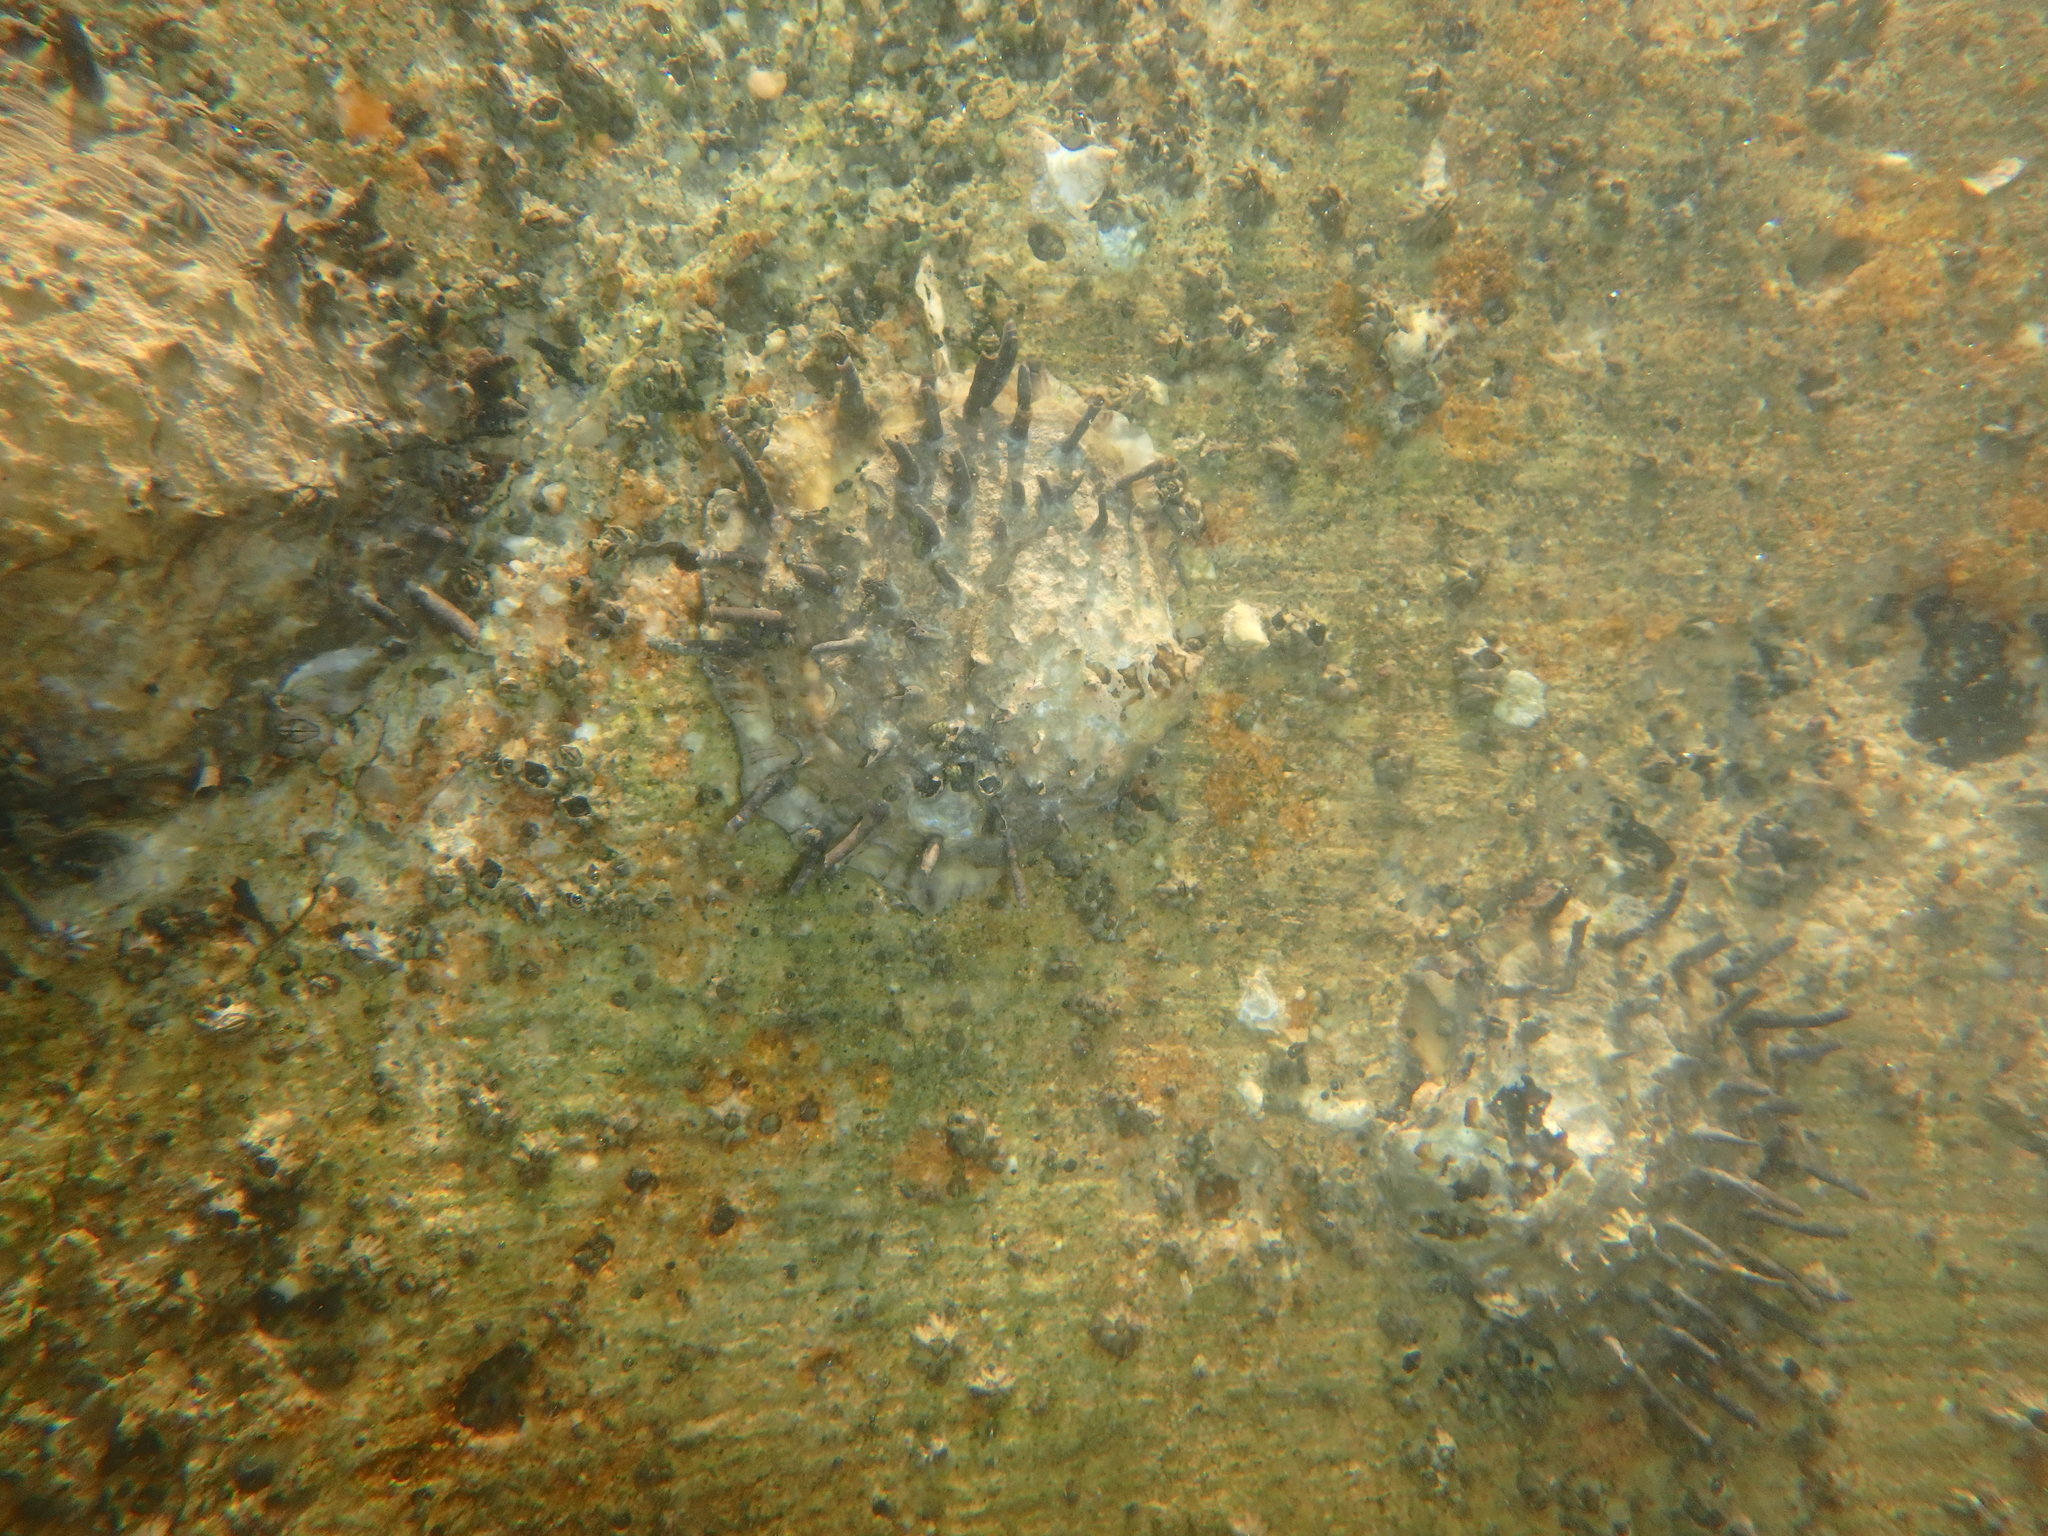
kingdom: Animalia
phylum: Mollusca
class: Bivalvia
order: Ostreida
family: Ostreidae
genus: Saccostrea
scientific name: Saccostrea kegaki
